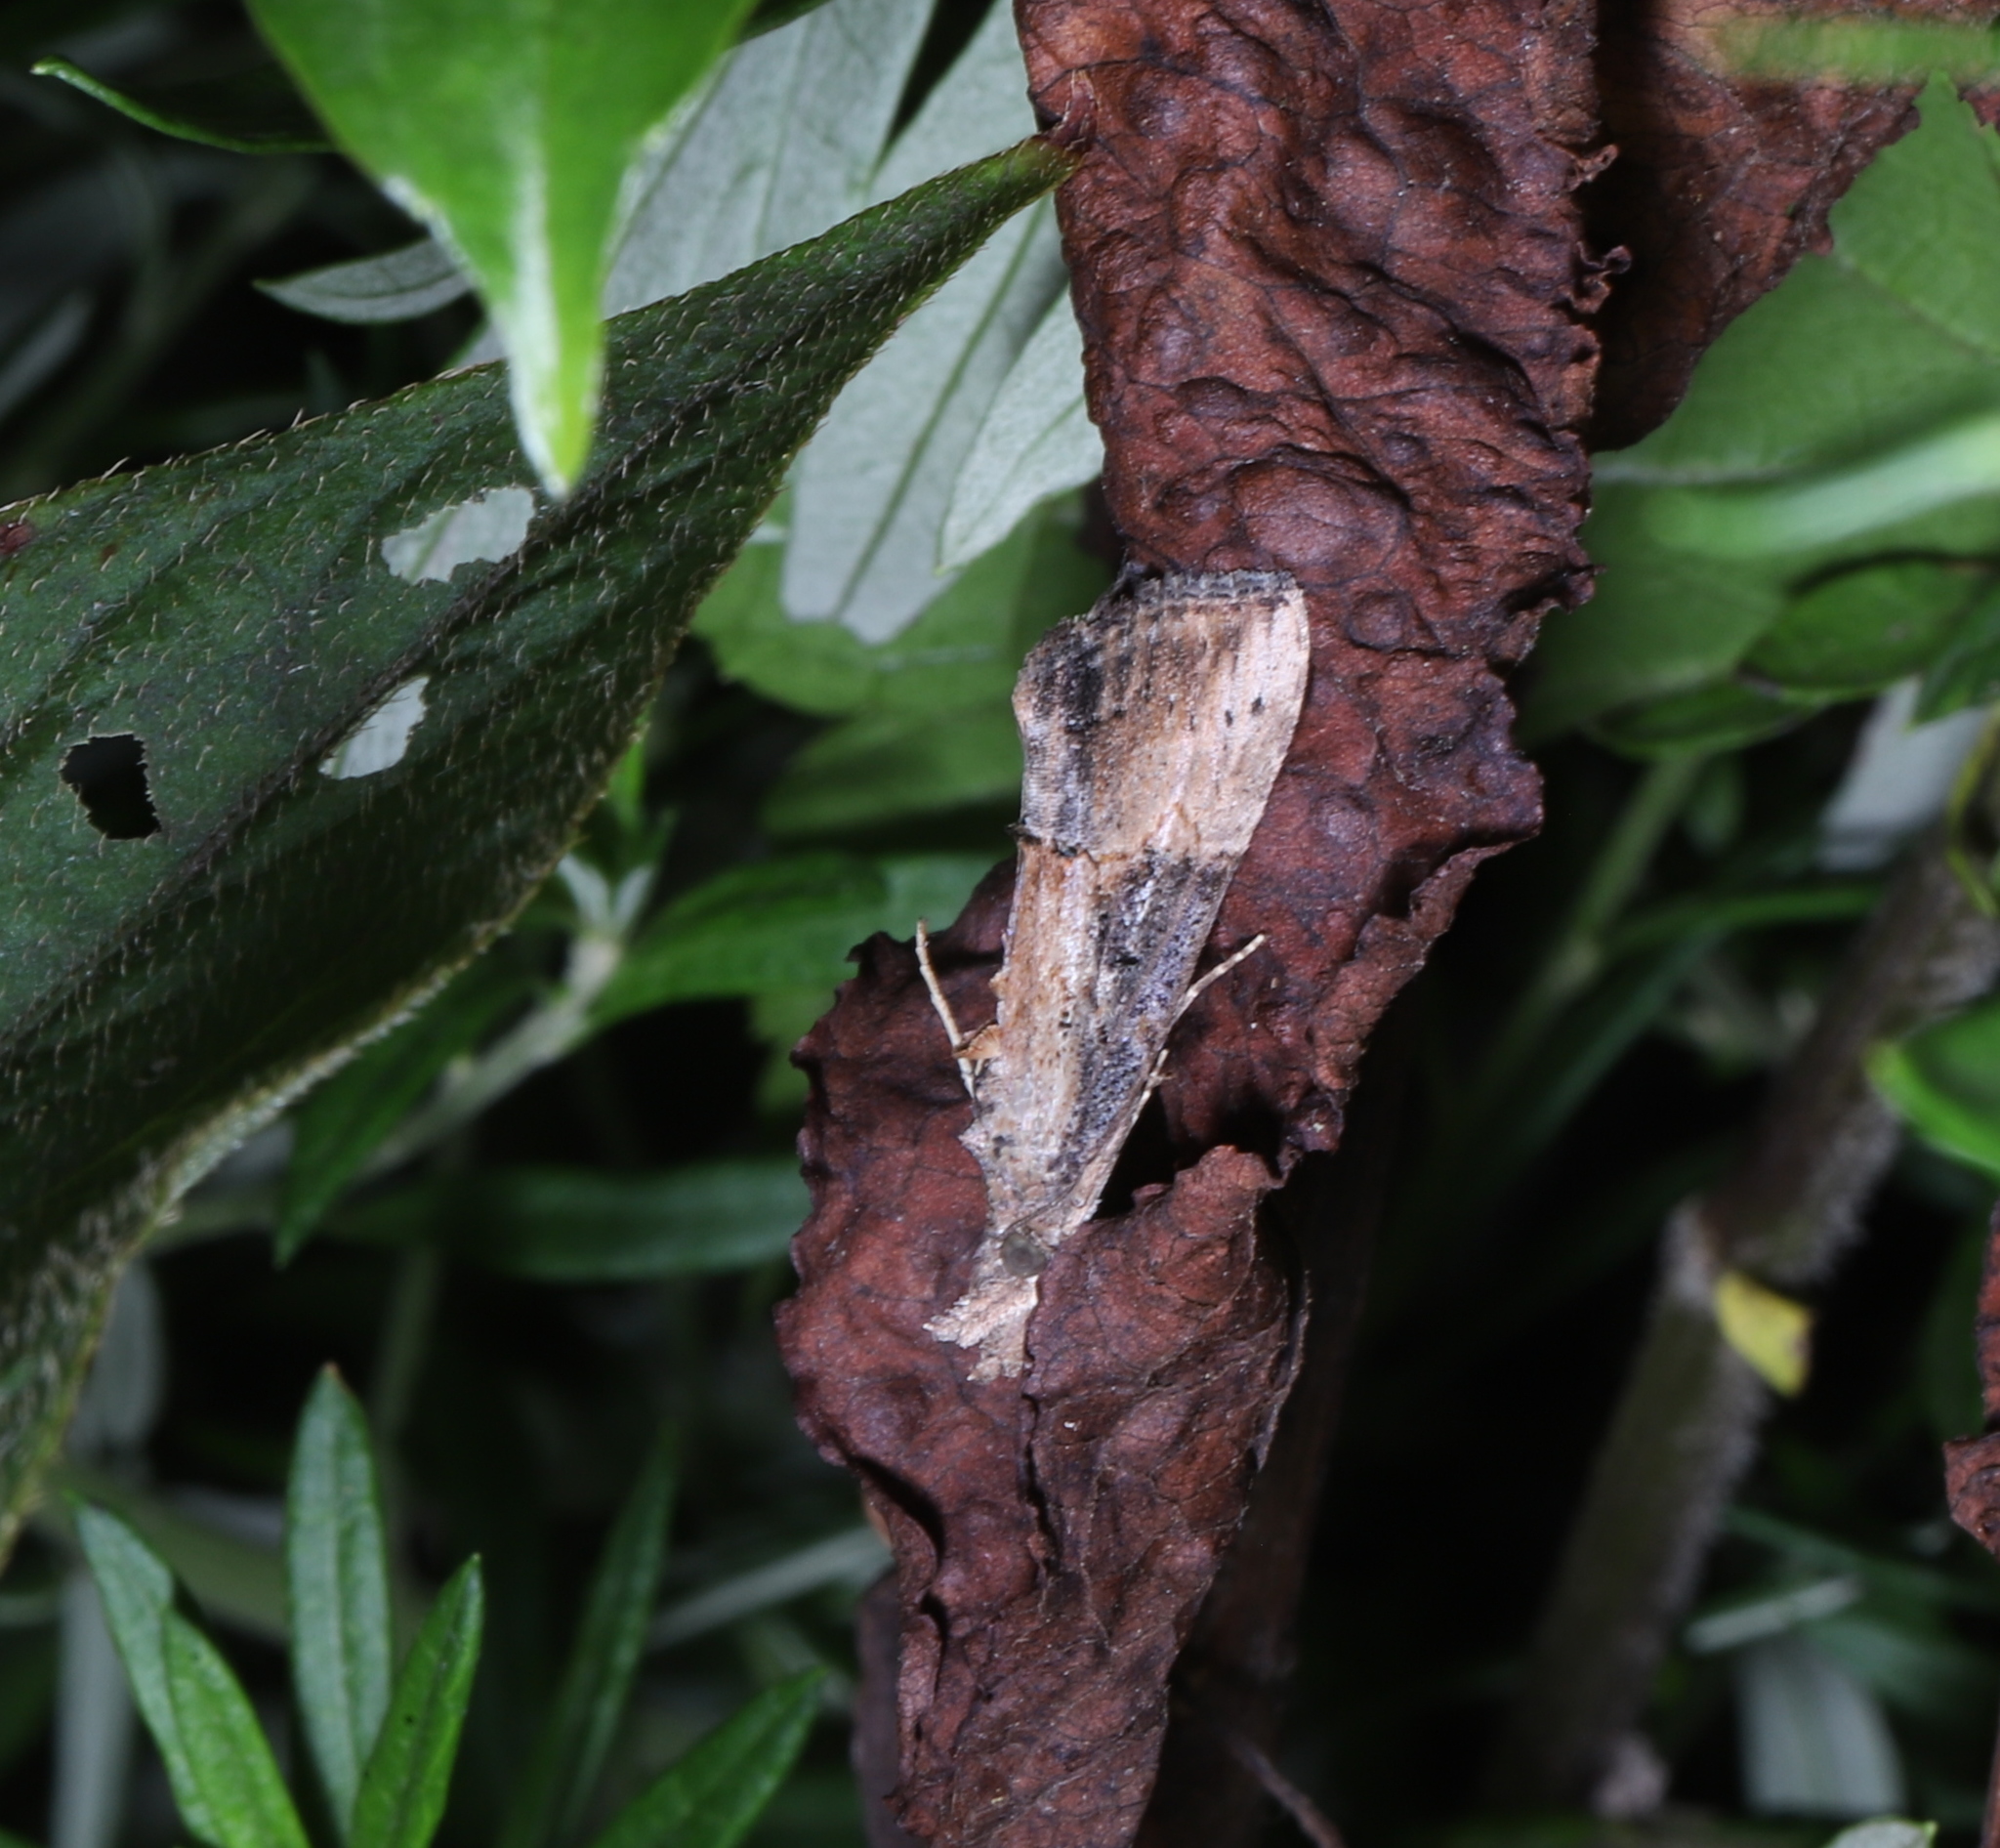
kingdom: Animalia
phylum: Arthropoda
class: Insecta
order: Lepidoptera
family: Erebidae
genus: Hypena
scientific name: Hypena scabra
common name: Green cloverworm
